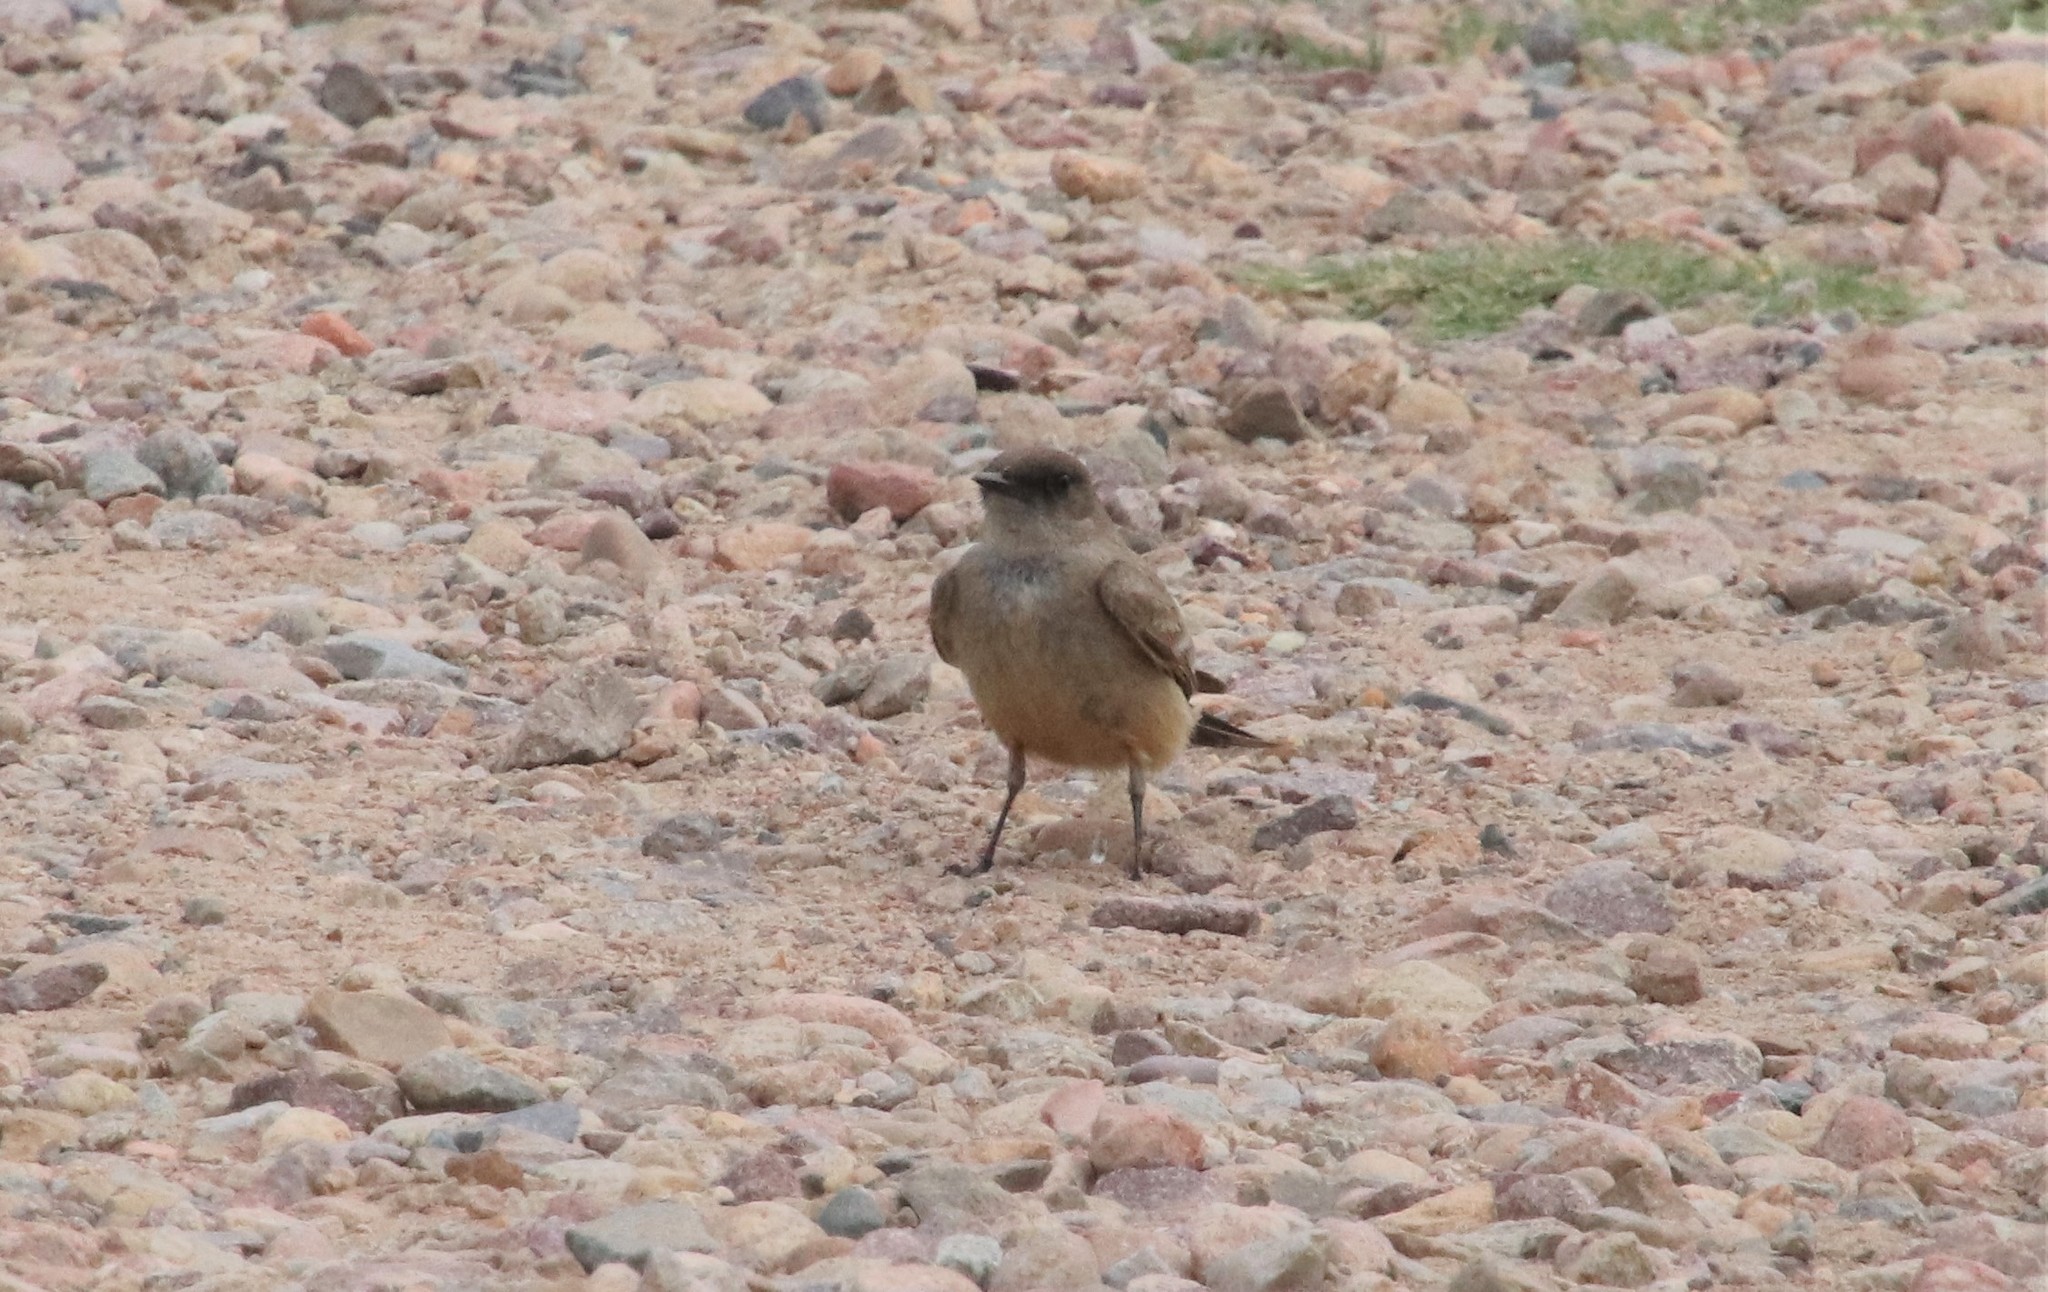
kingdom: Animalia
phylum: Chordata
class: Aves
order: Passeriformes
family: Tyrannidae
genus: Sayornis
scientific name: Sayornis saya
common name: Say's phoebe
